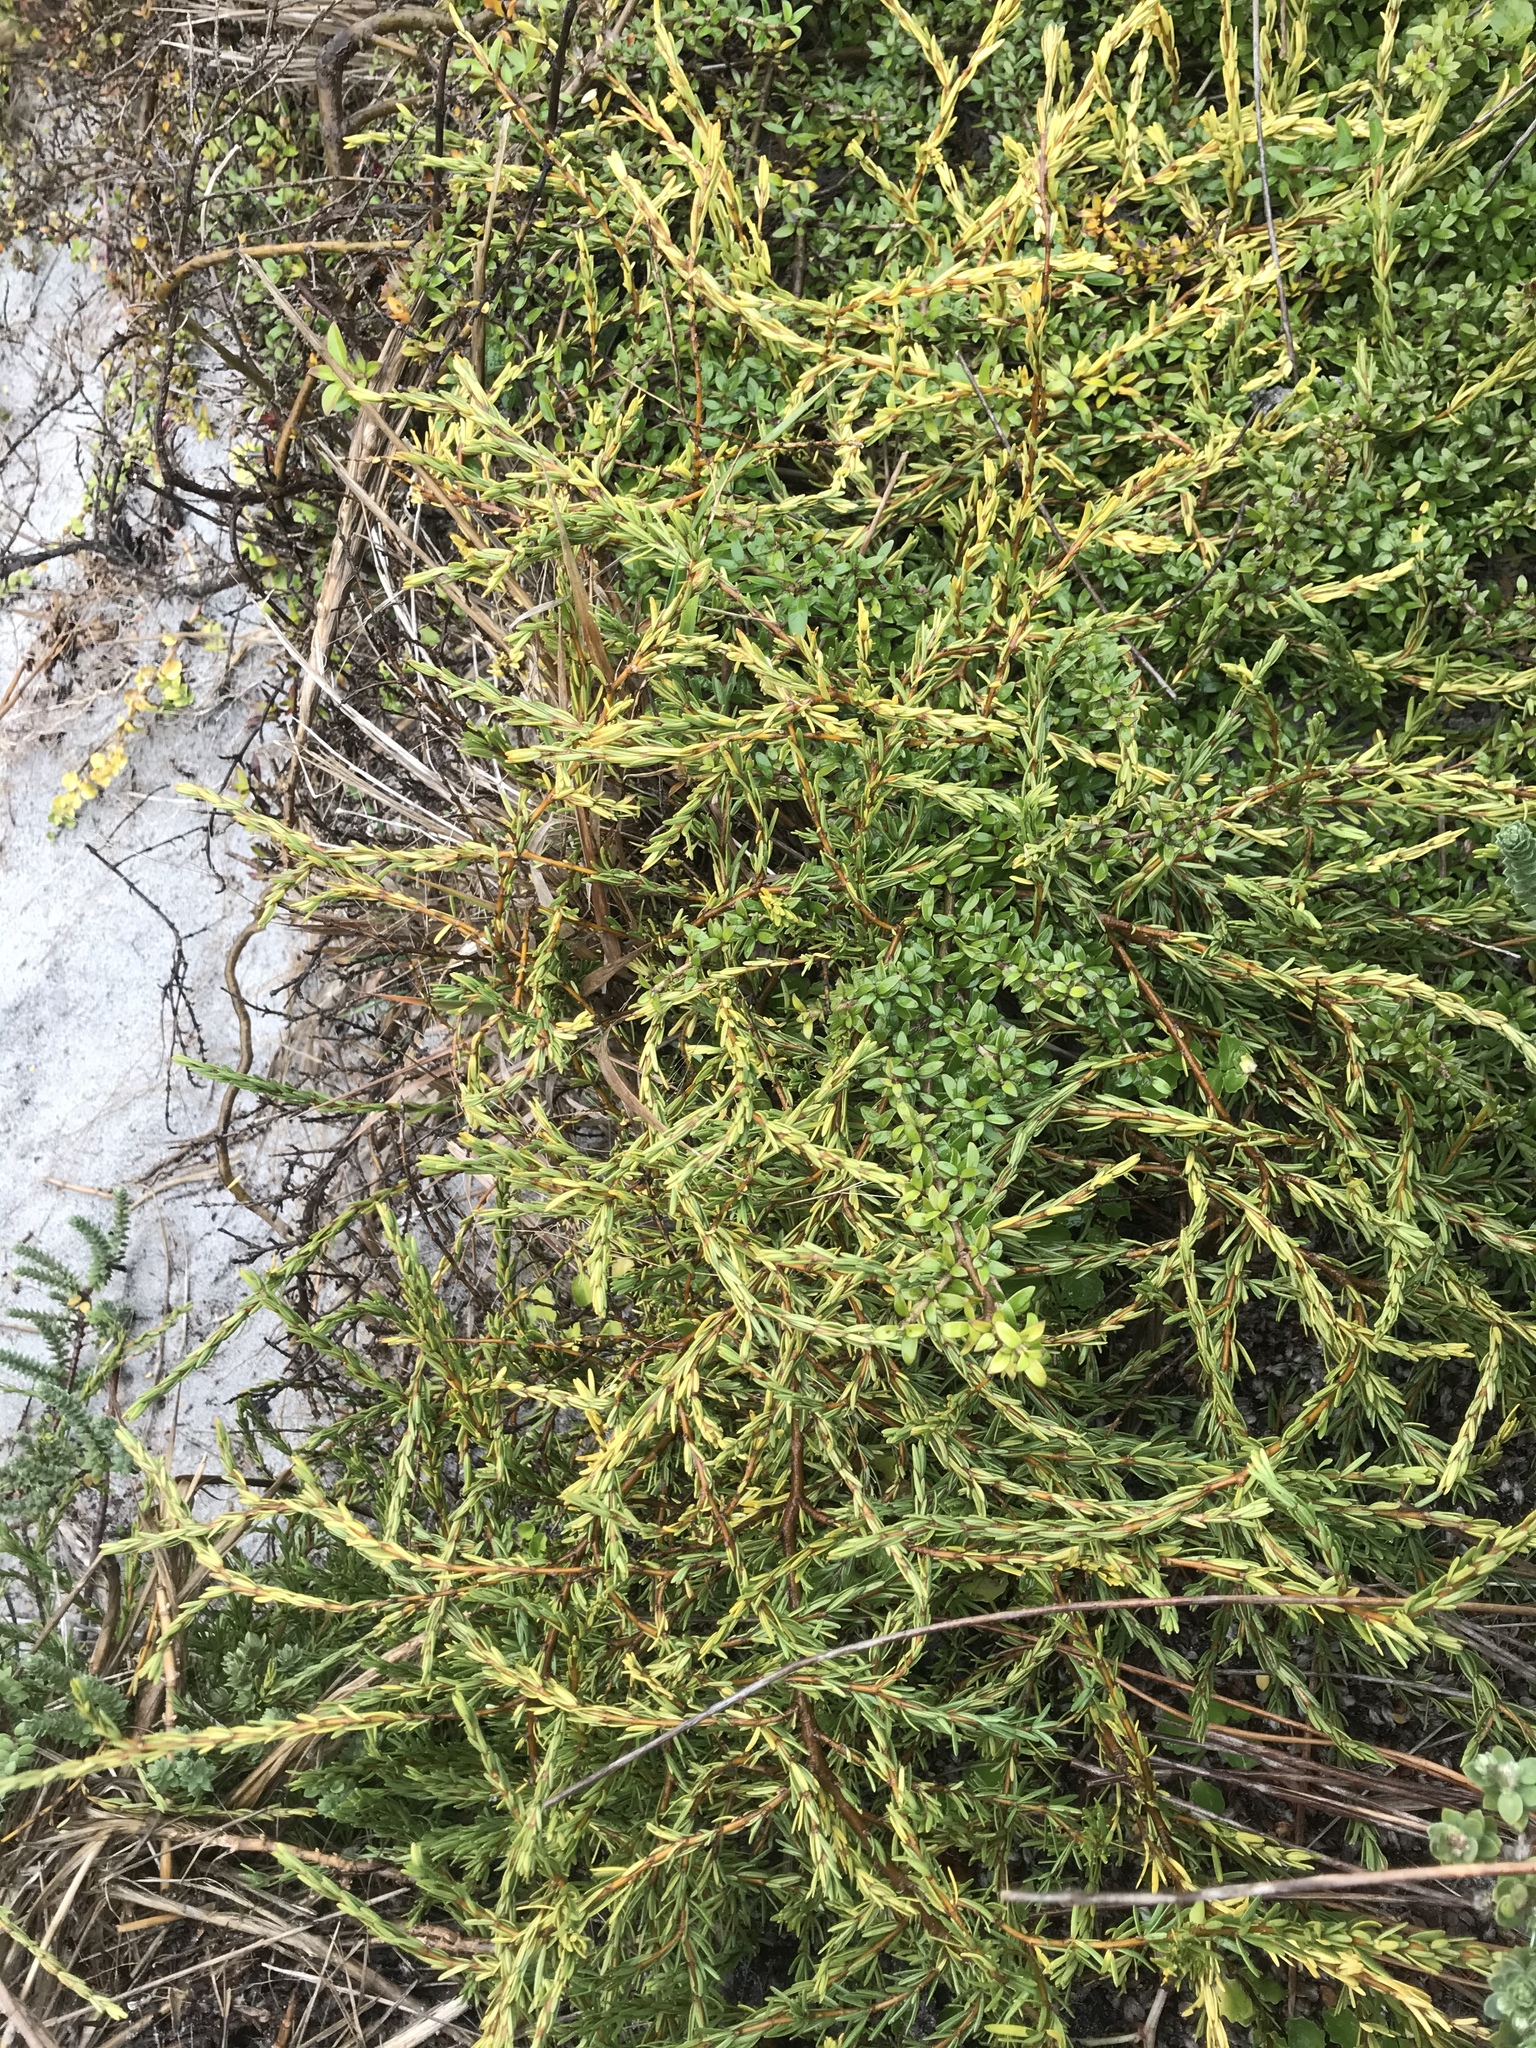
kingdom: Plantae
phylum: Tracheophyta
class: Magnoliopsida
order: Gentianales
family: Rubiaceae
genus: Coprosma
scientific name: Coprosma acerosa
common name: Sand coprosma
